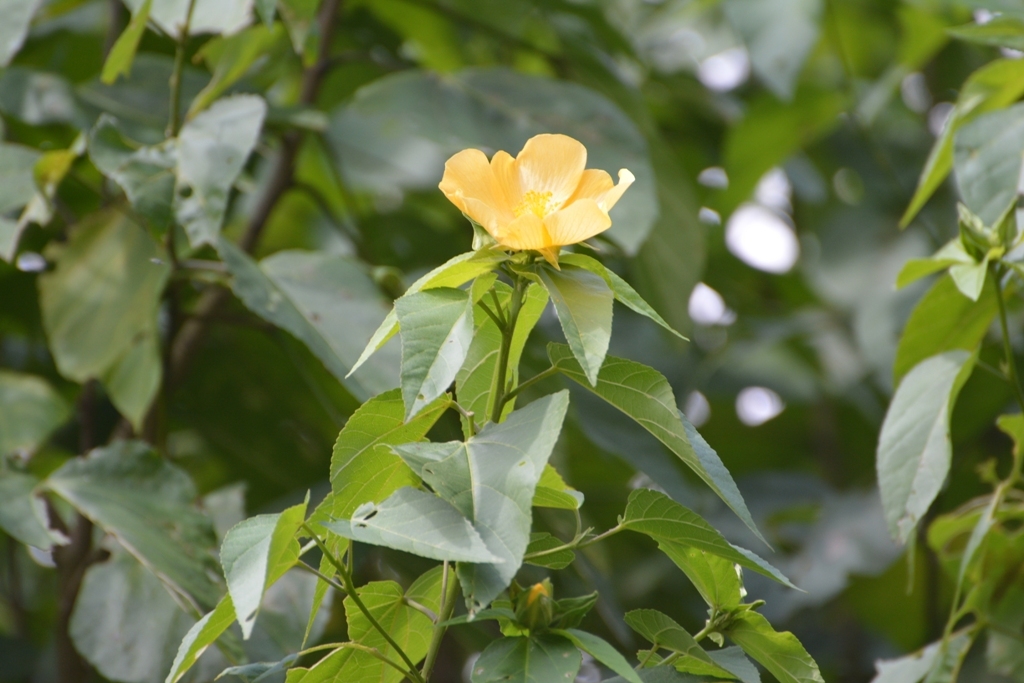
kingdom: Plantae
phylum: Tracheophyta
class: Magnoliopsida
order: Malvales
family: Malvaceae
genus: Dendrosida
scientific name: Dendrosida sharpiana
